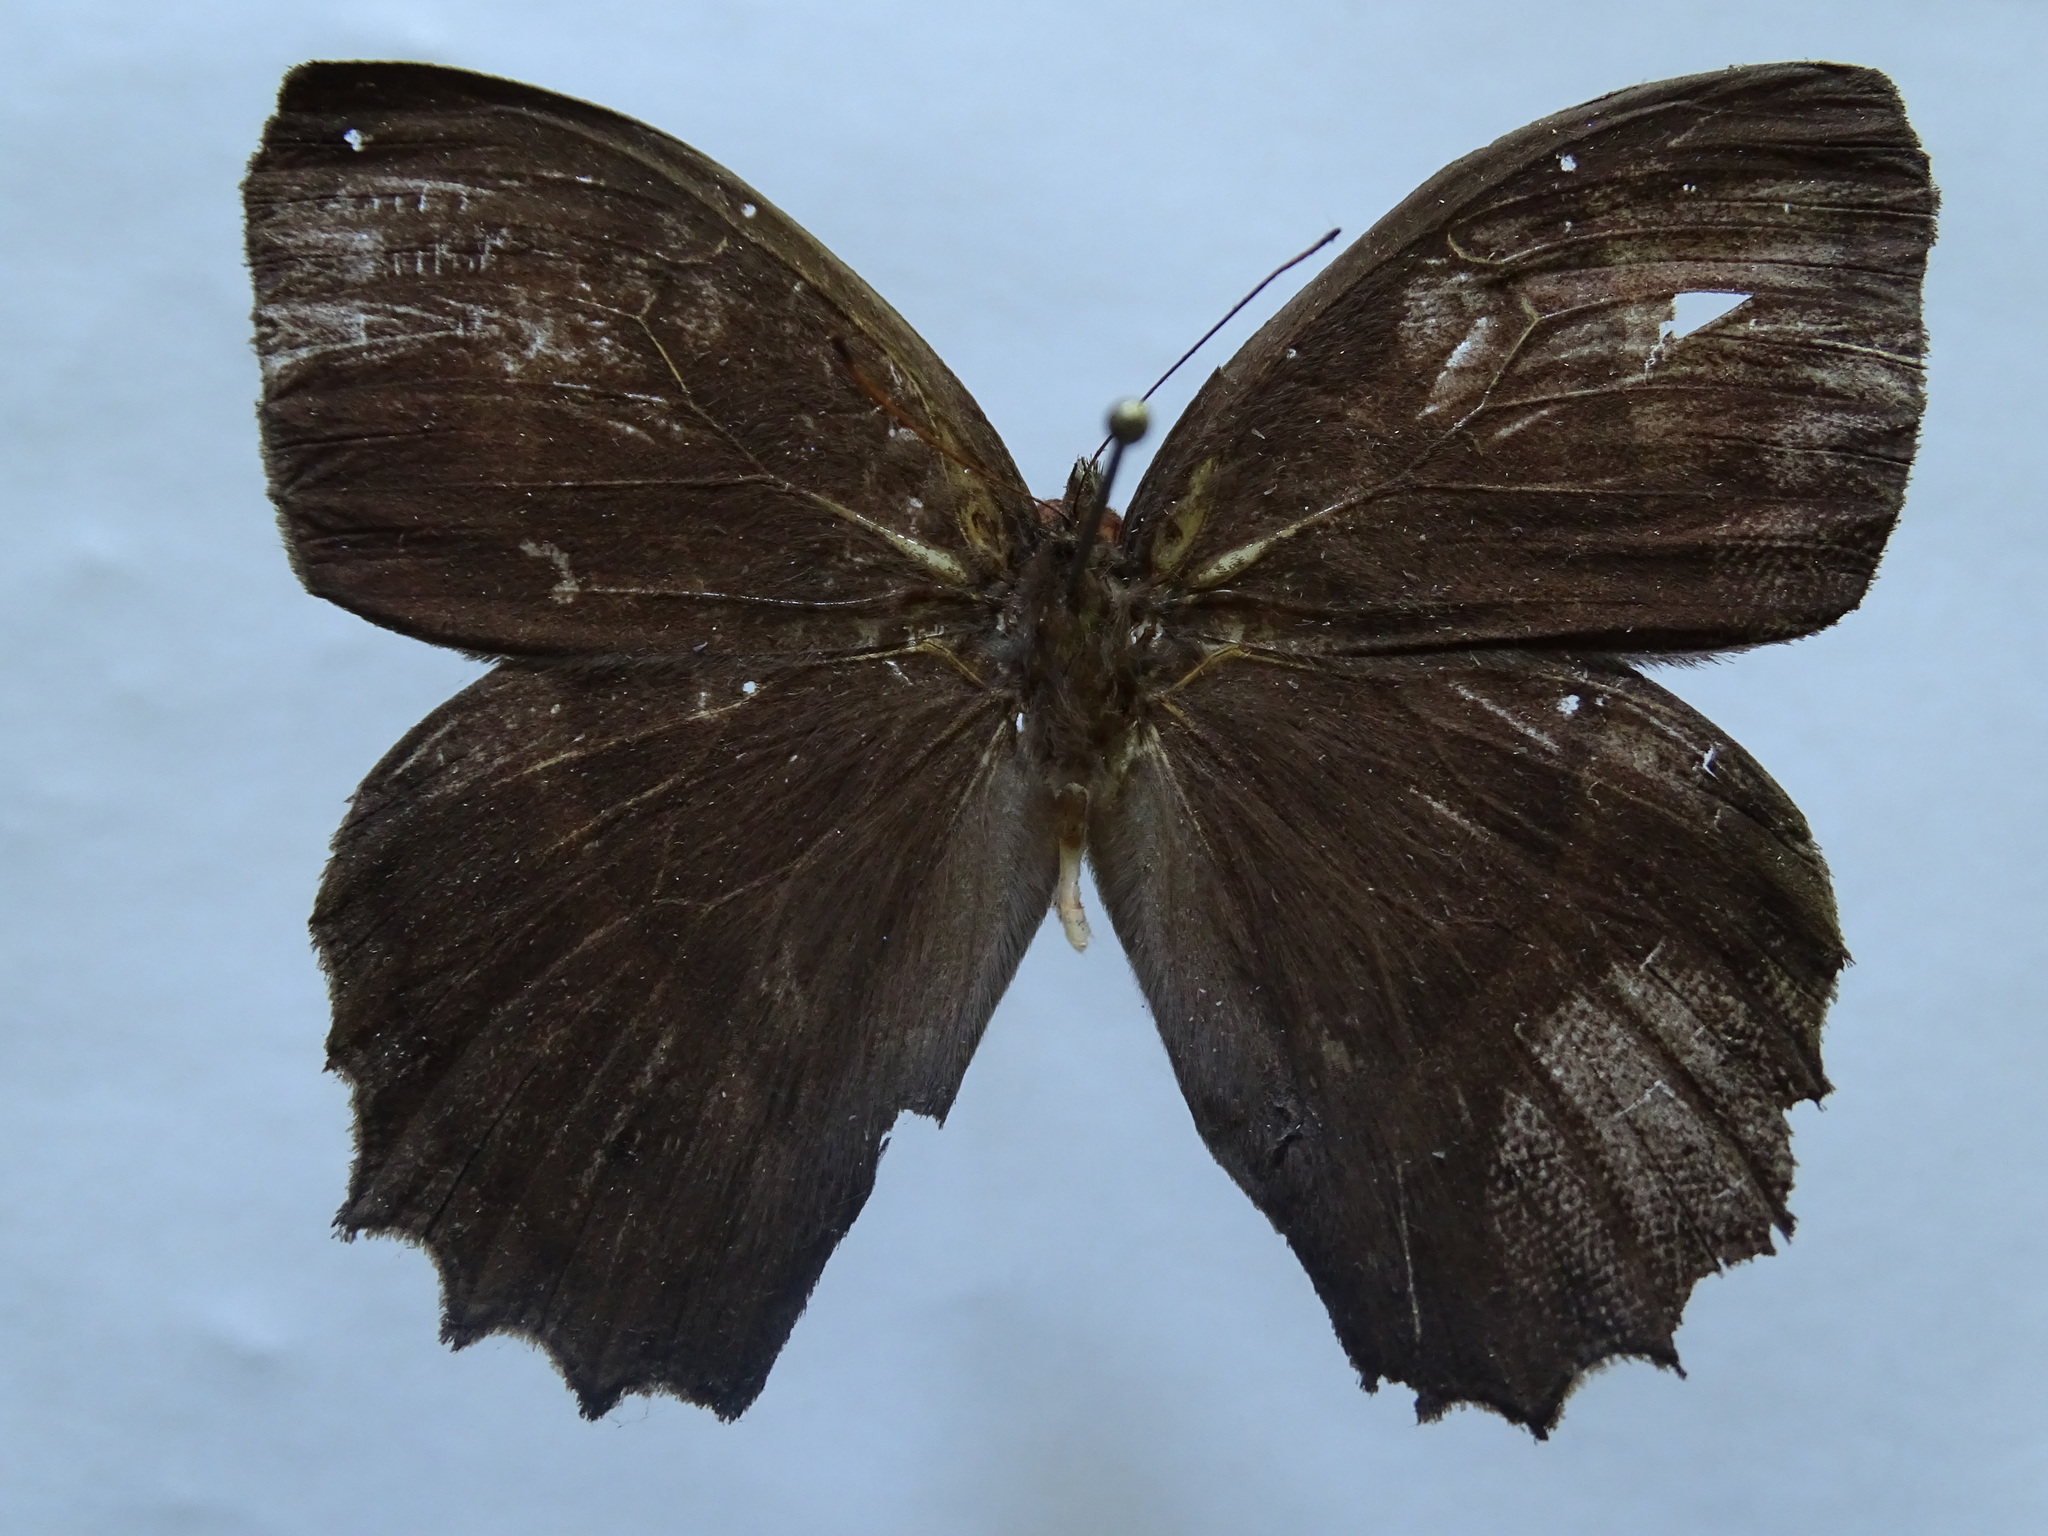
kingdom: Animalia
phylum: Arthropoda
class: Insecta
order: Lepidoptera
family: Nymphalidae
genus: Taygetis
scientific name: Taygetis andromeda
